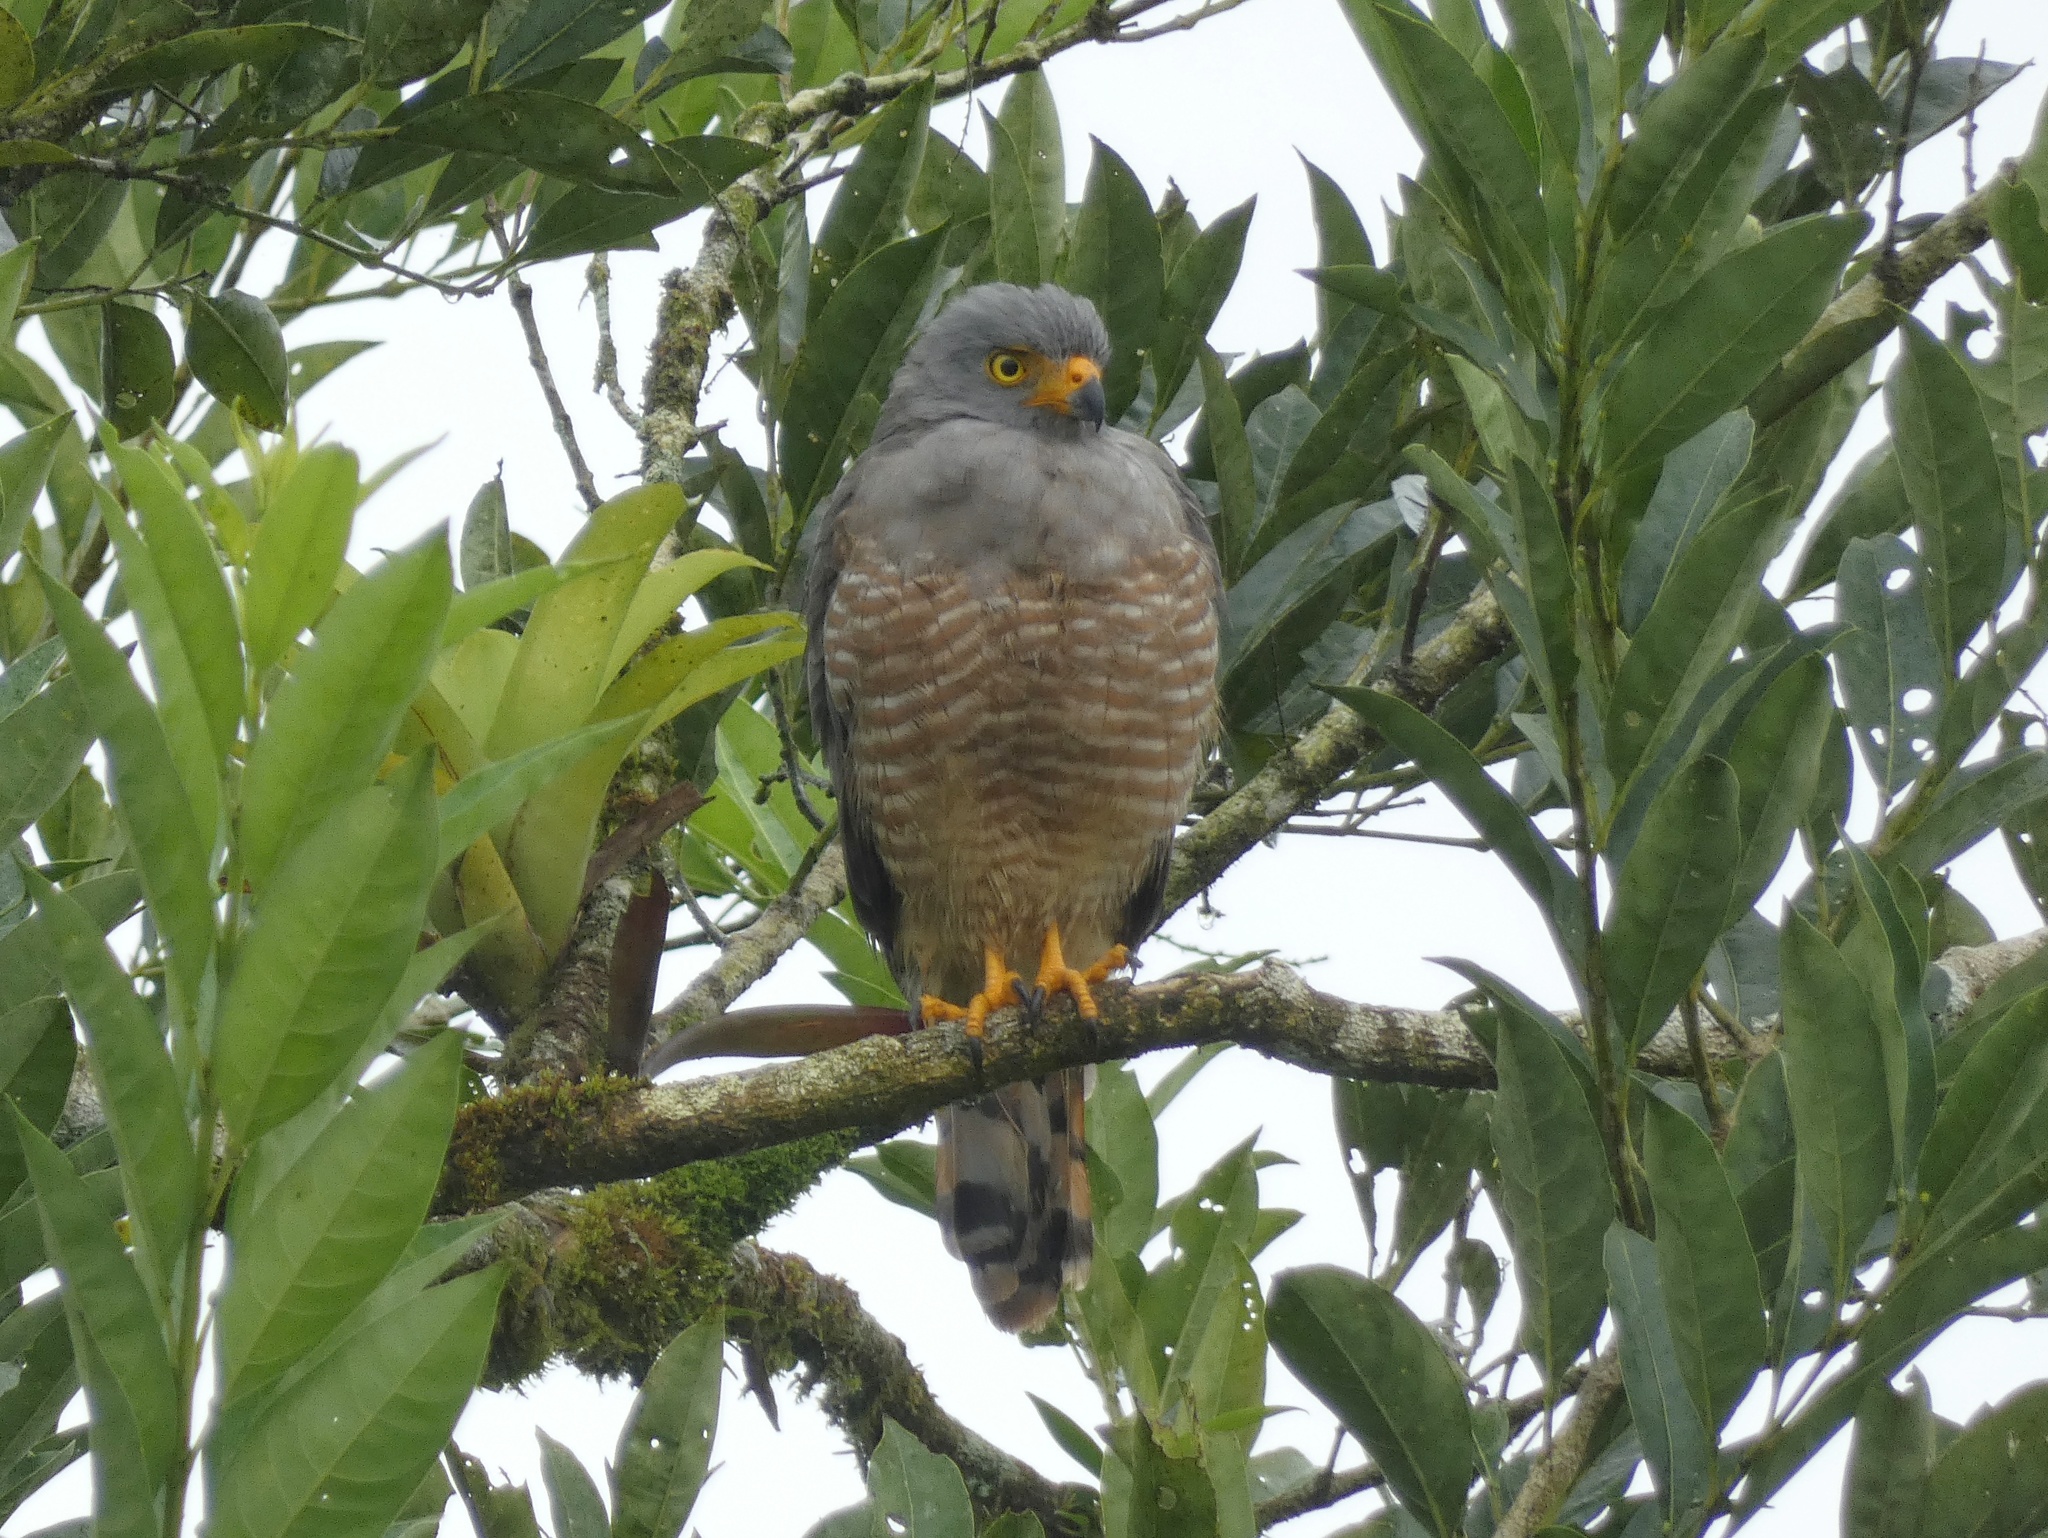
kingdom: Animalia
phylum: Chordata
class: Aves
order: Accipitriformes
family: Accipitridae
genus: Rupornis
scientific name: Rupornis magnirostris
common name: Roadside hawk
